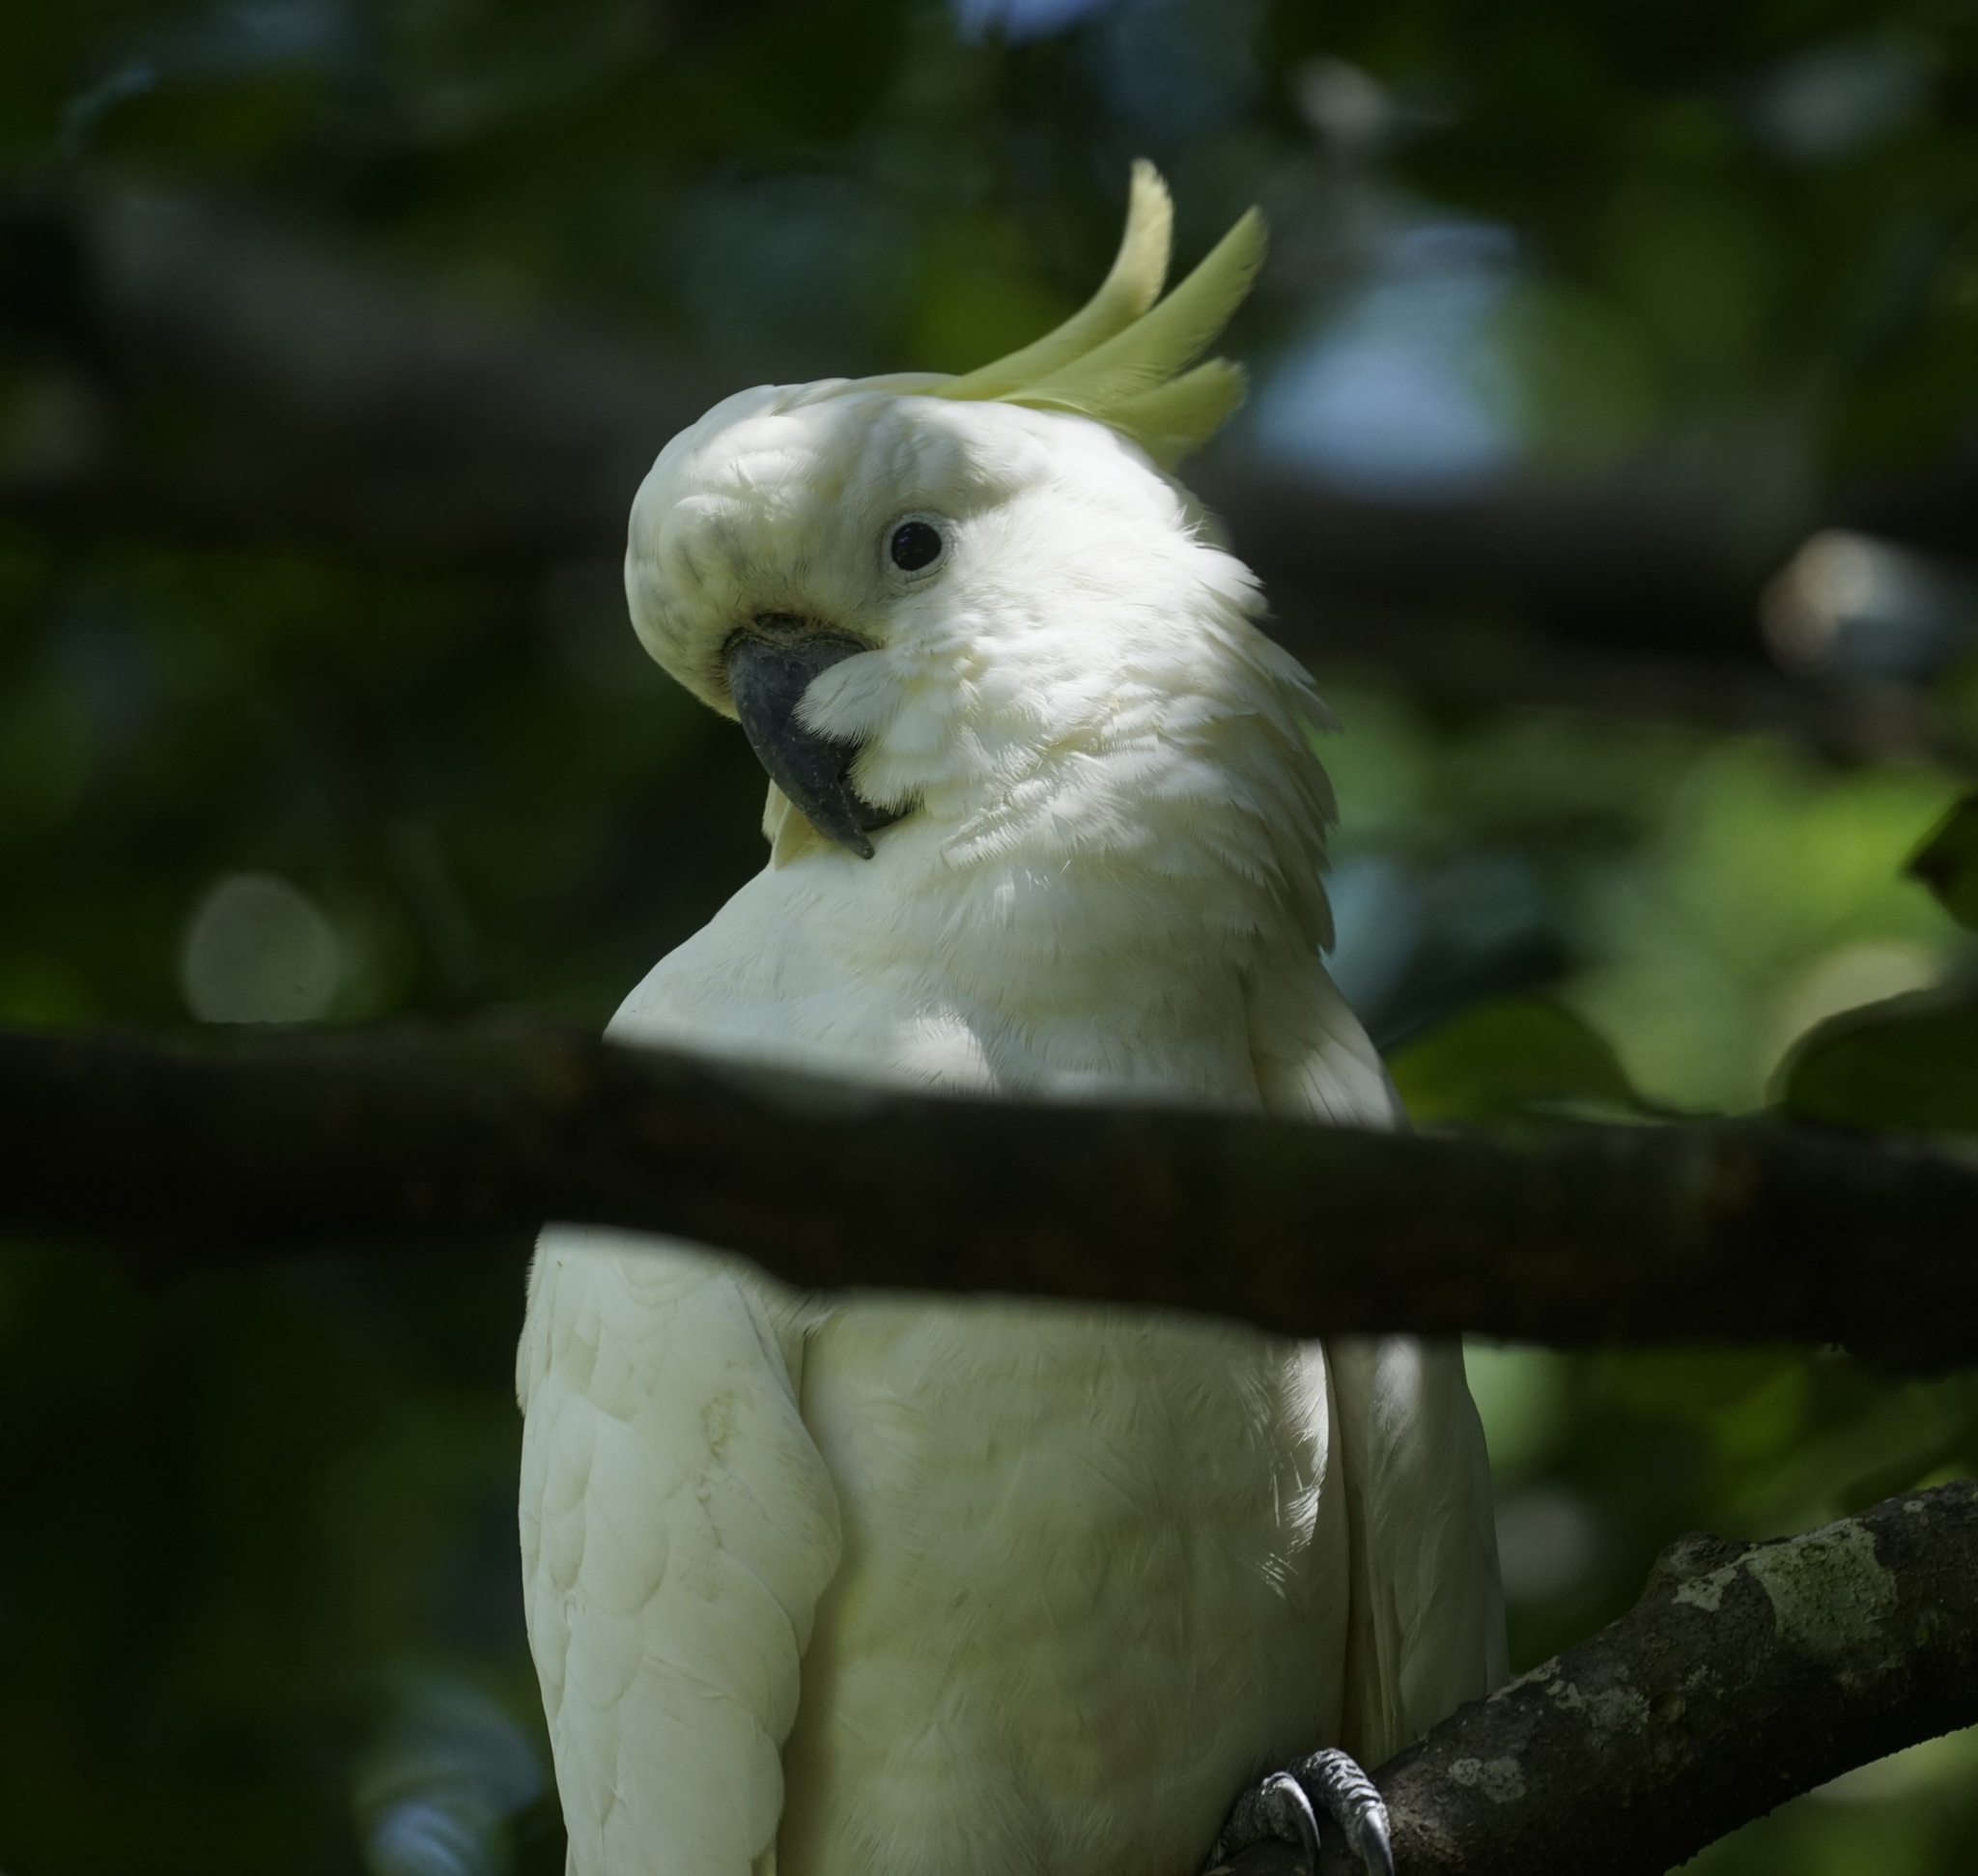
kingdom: Animalia
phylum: Chordata
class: Aves
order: Psittaciformes
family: Psittacidae
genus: Cacatua
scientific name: Cacatua galerita
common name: Sulphur-crested cockatoo
